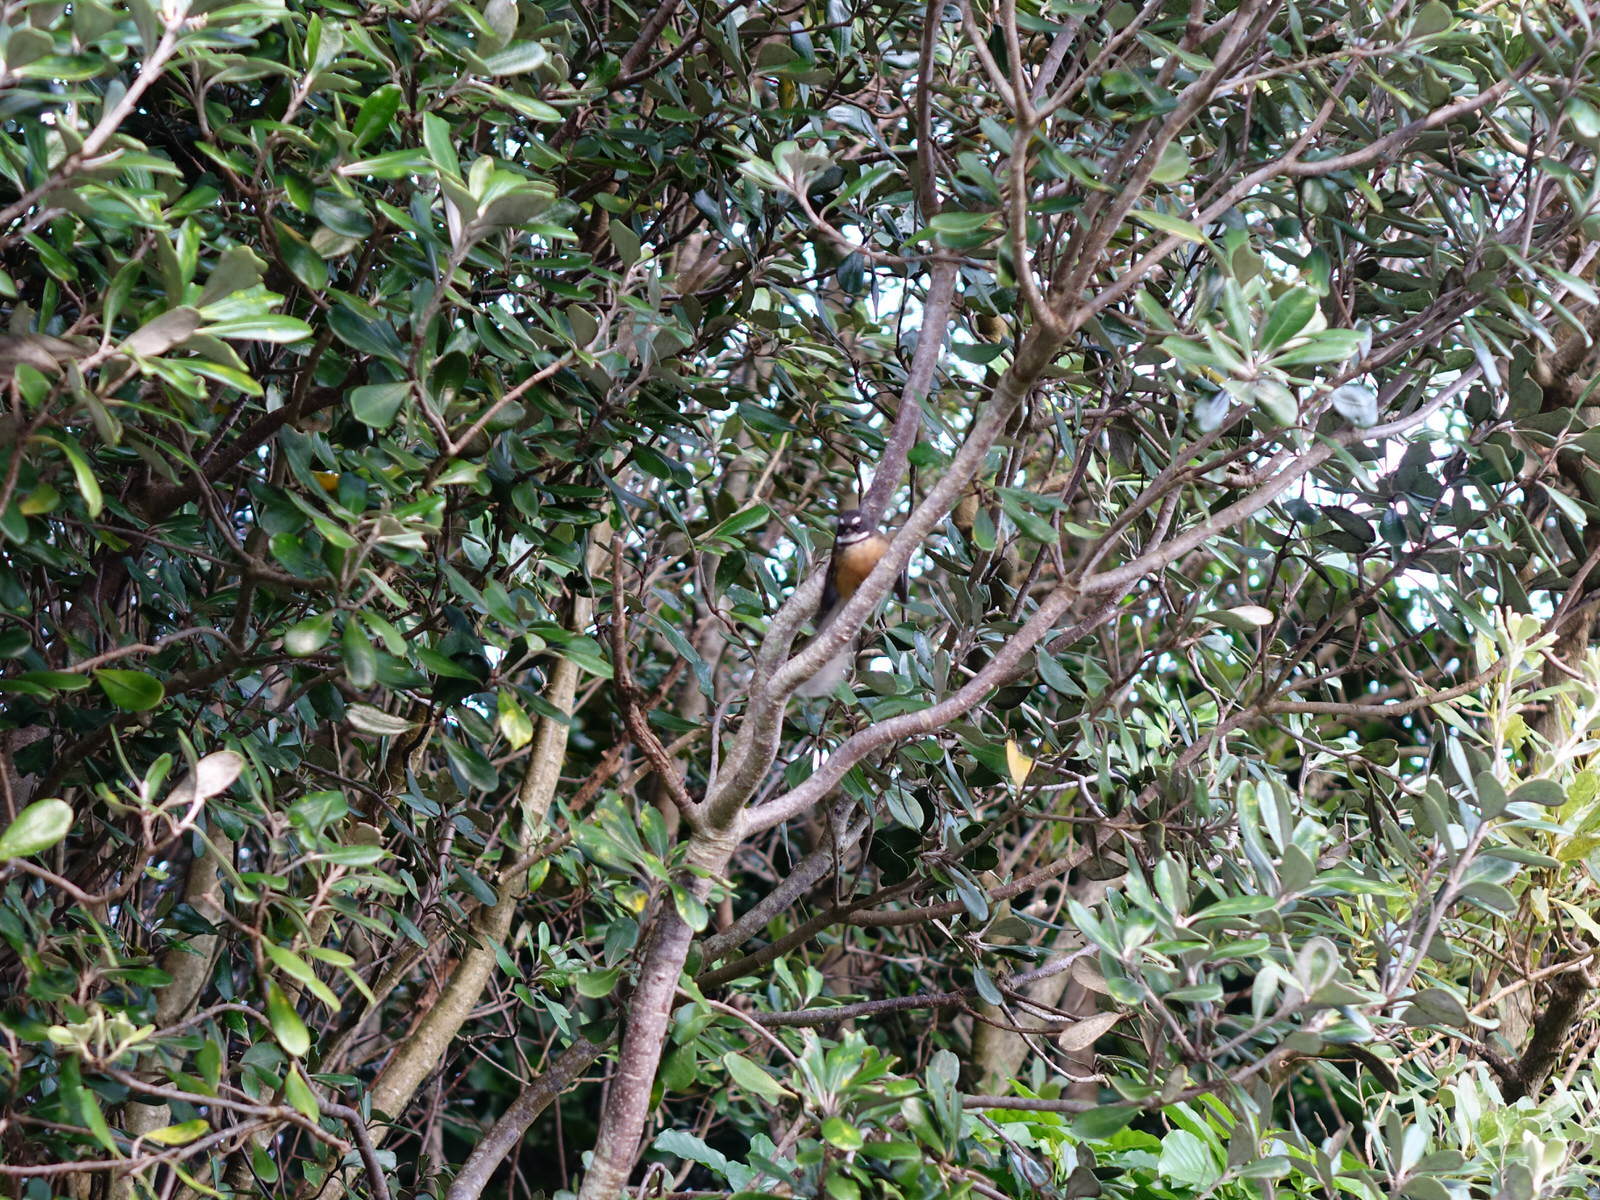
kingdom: Animalia
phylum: Chordata
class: Aves
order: Passeriformes
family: Rhipiduridae
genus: Rhipidura
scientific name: Rhipidura fuliginosa
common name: New zealand fantail
